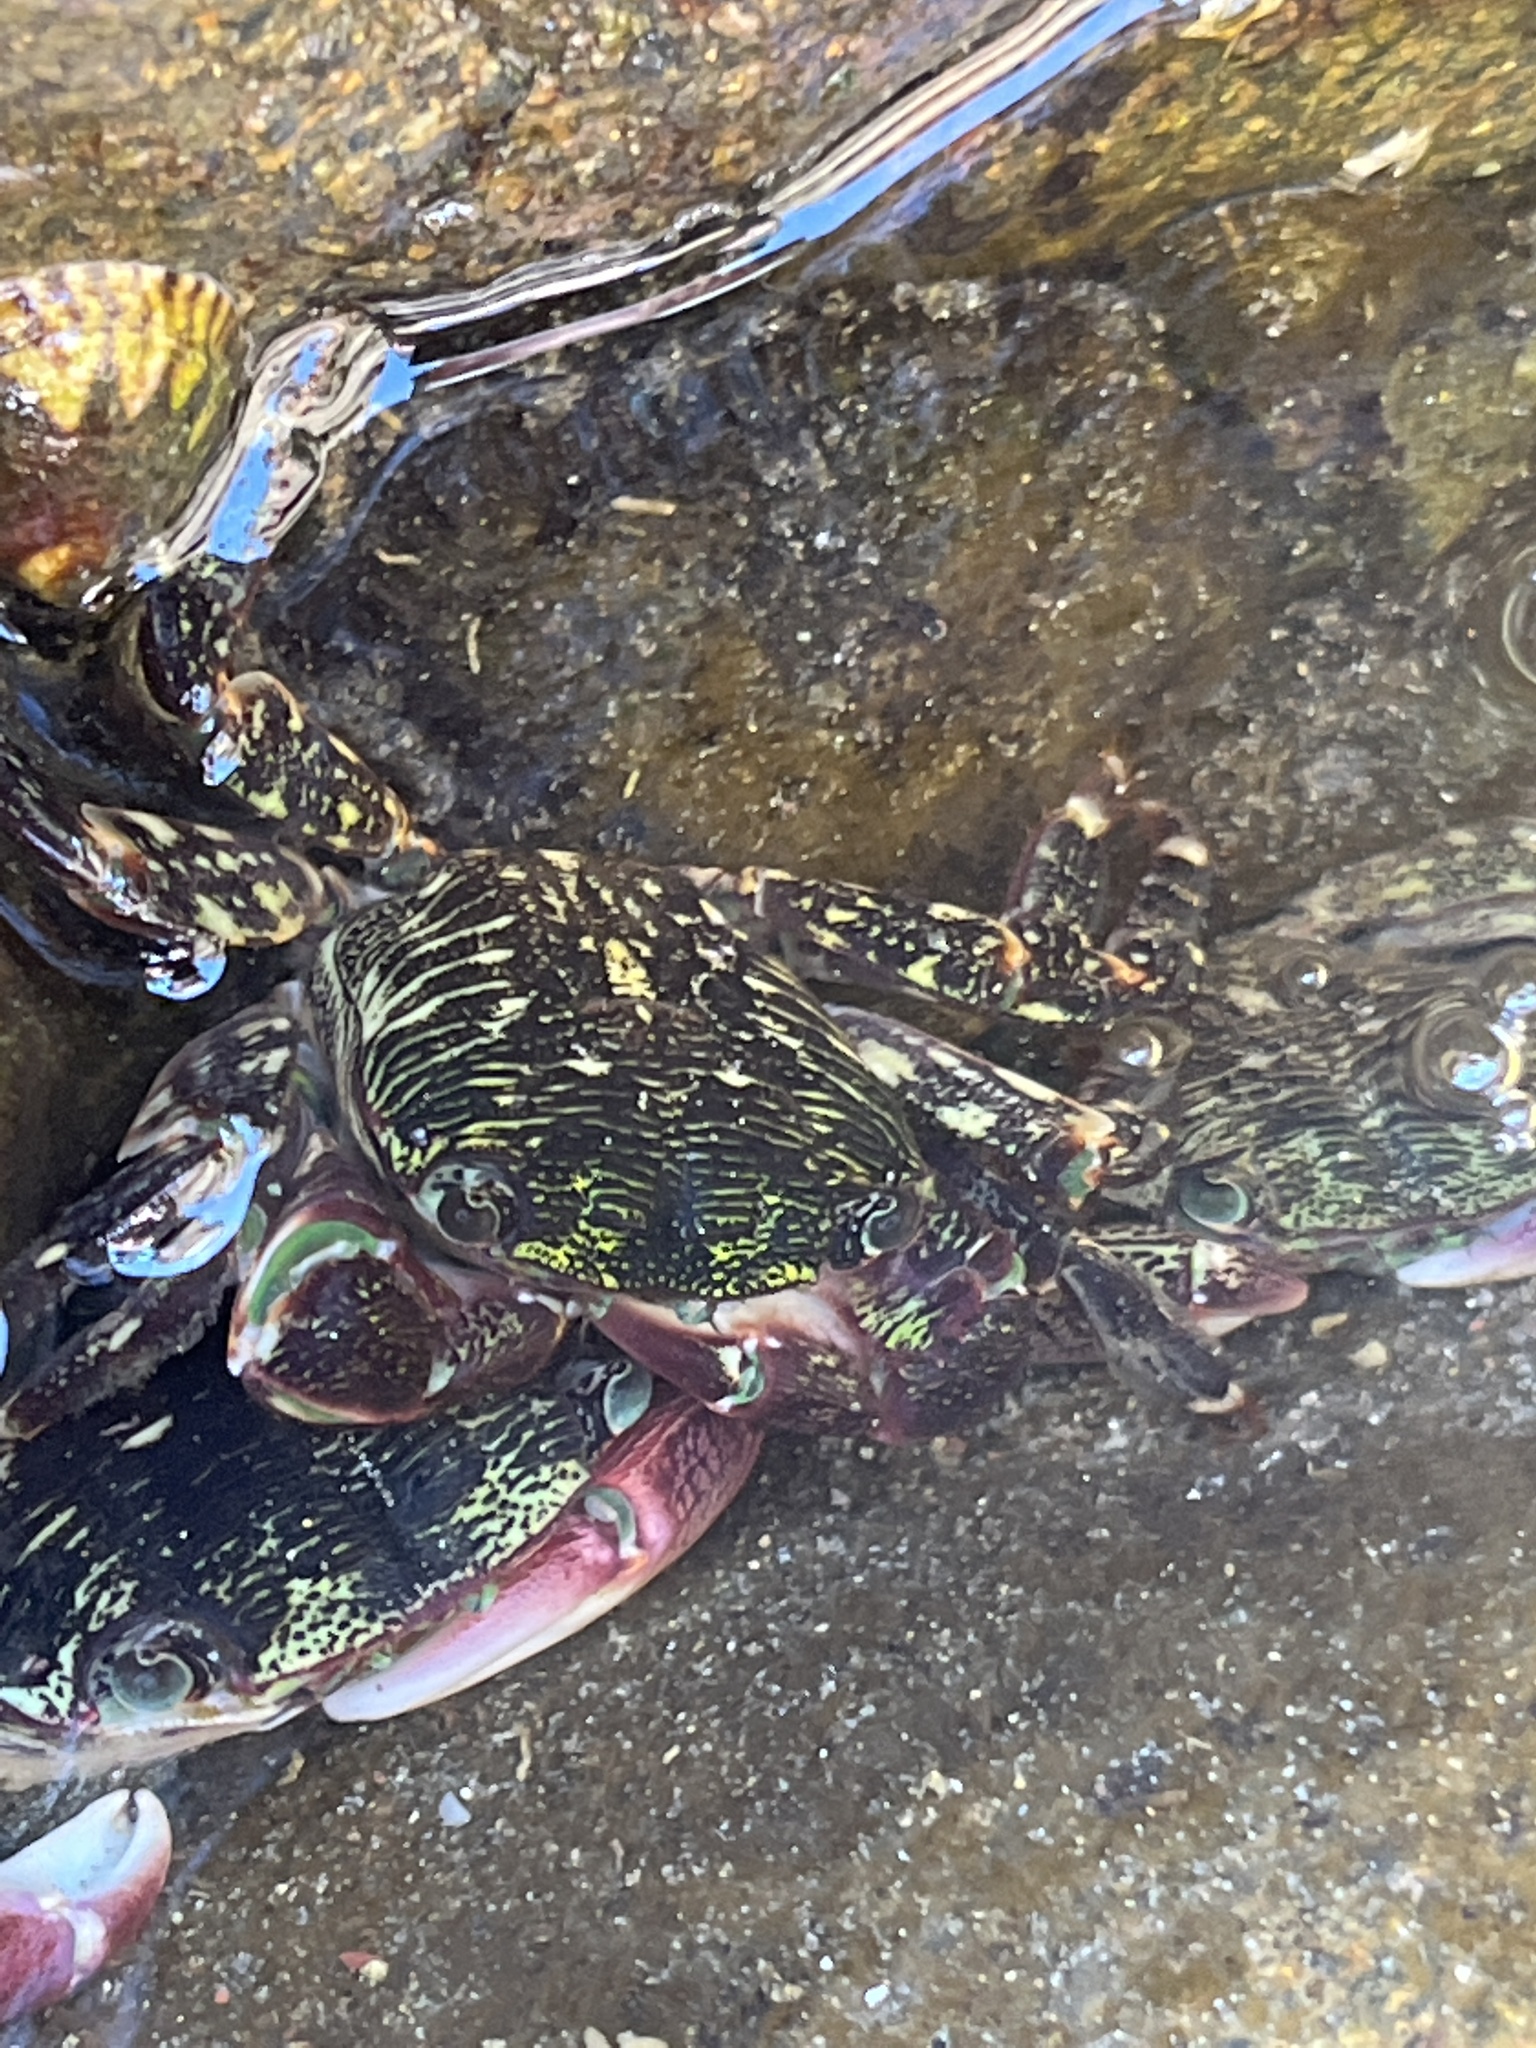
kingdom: Animalia
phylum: Arthropoda
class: Malacostraca
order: Decapoda
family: Grapsidae
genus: Pachygrapsus
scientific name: Pachygrapsus crassipes
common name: Striped shore crab
